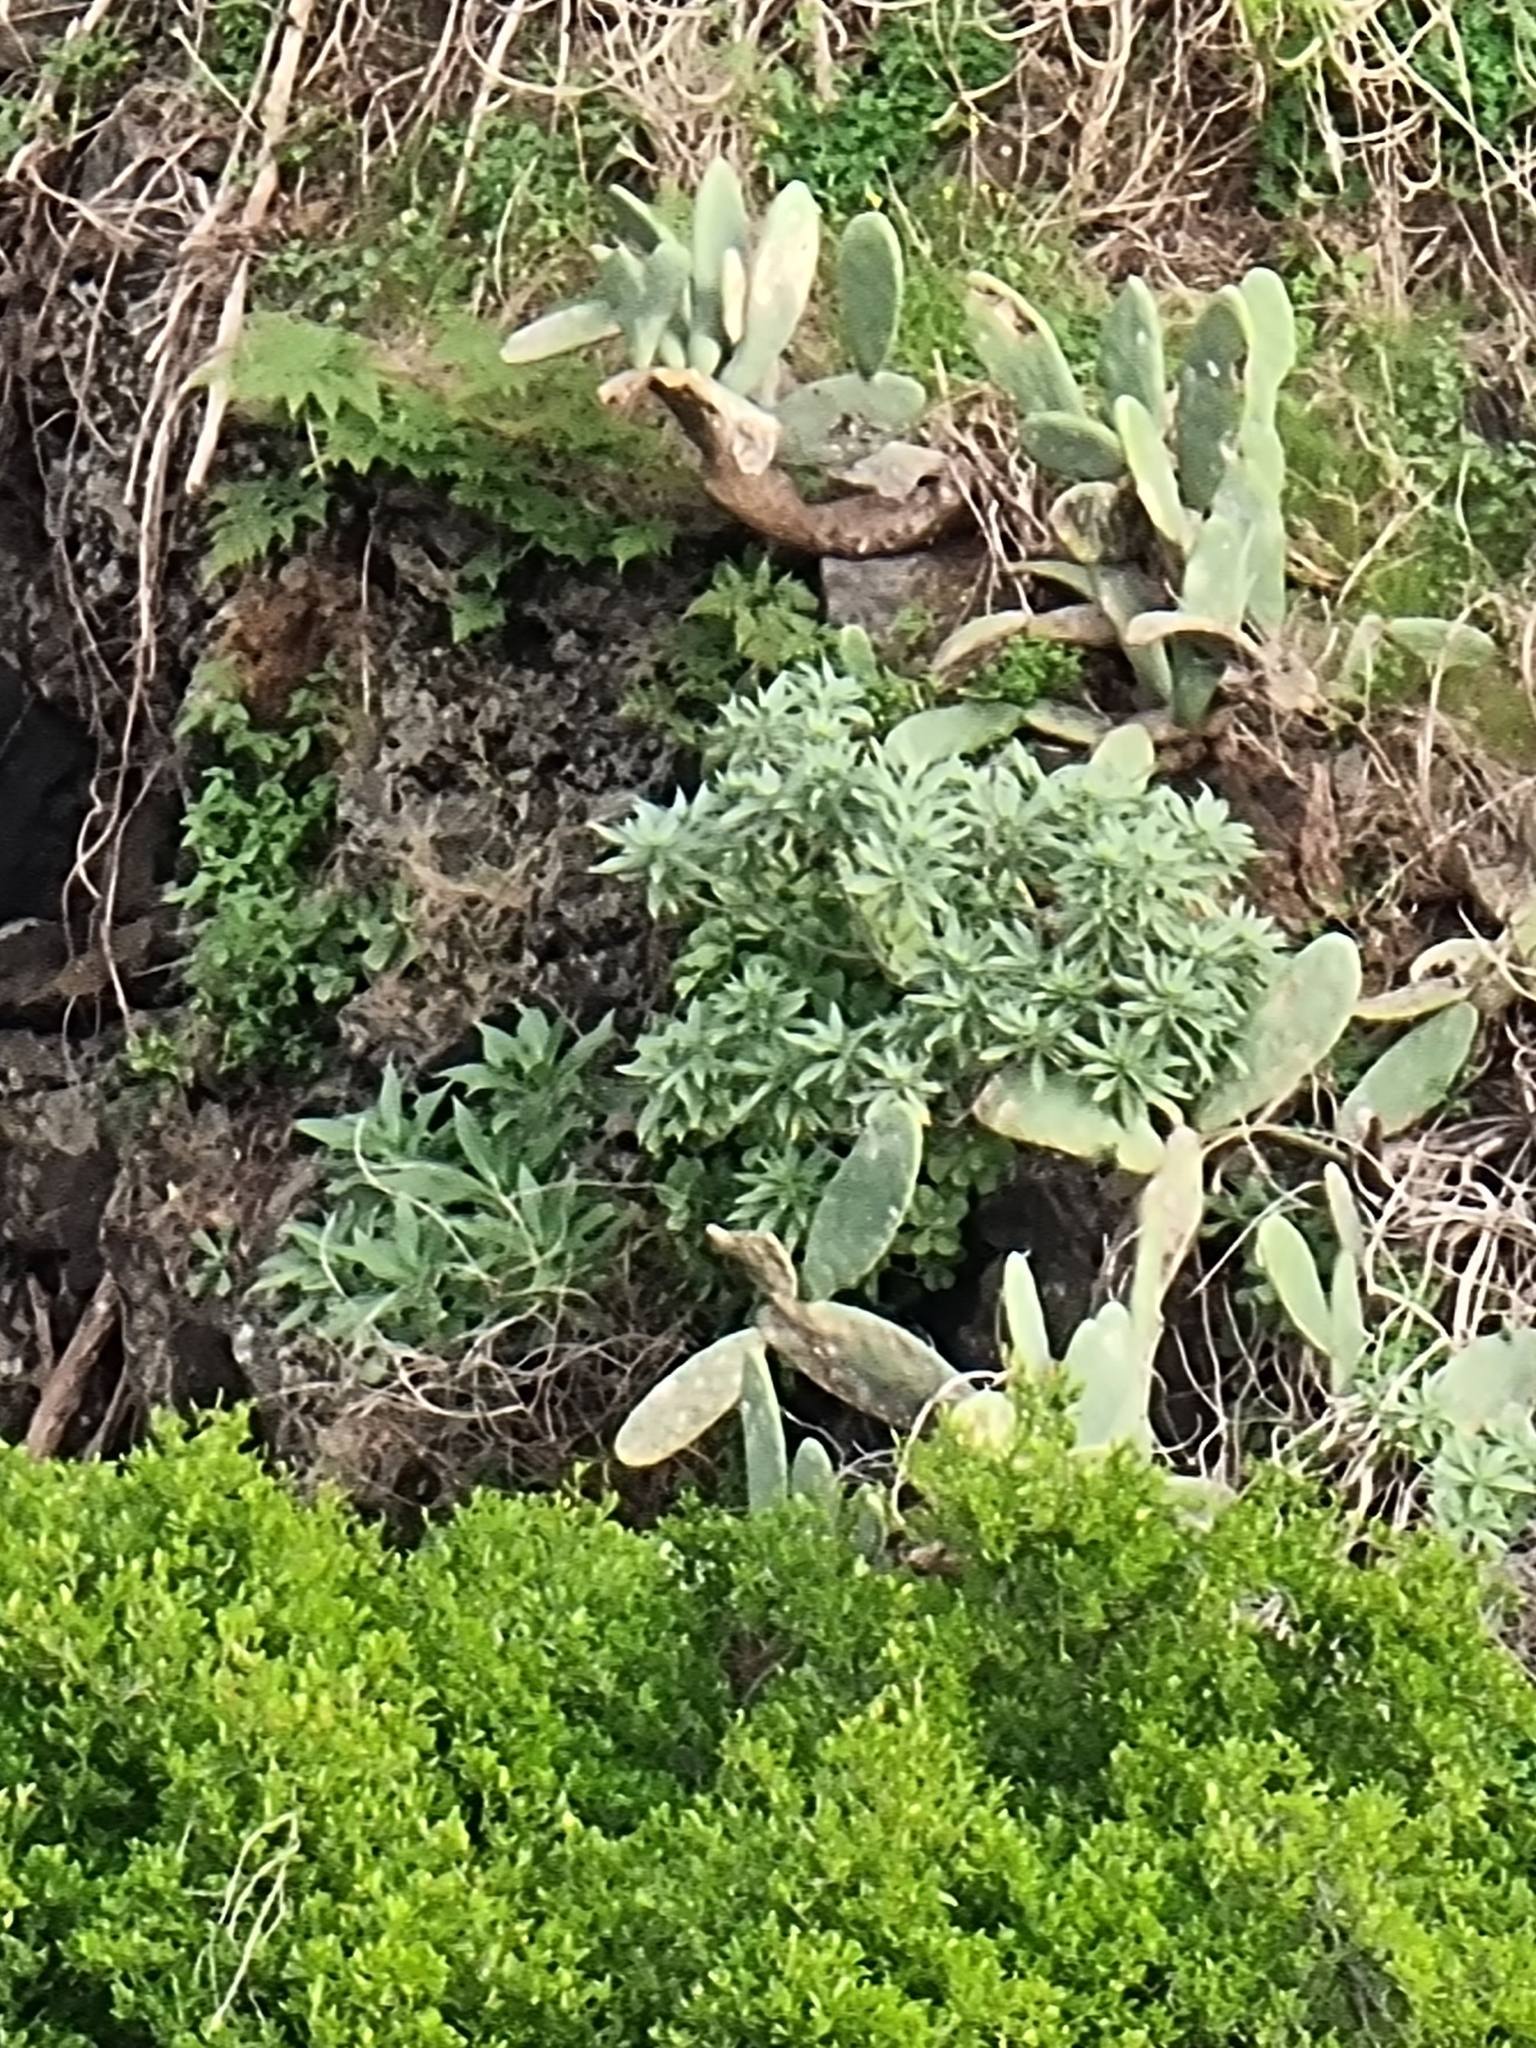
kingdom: Plantae
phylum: Tracheophyta
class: Magnoliopsida
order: Boraginales
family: Boraginaceae
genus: Echium
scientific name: Echium nervosum
